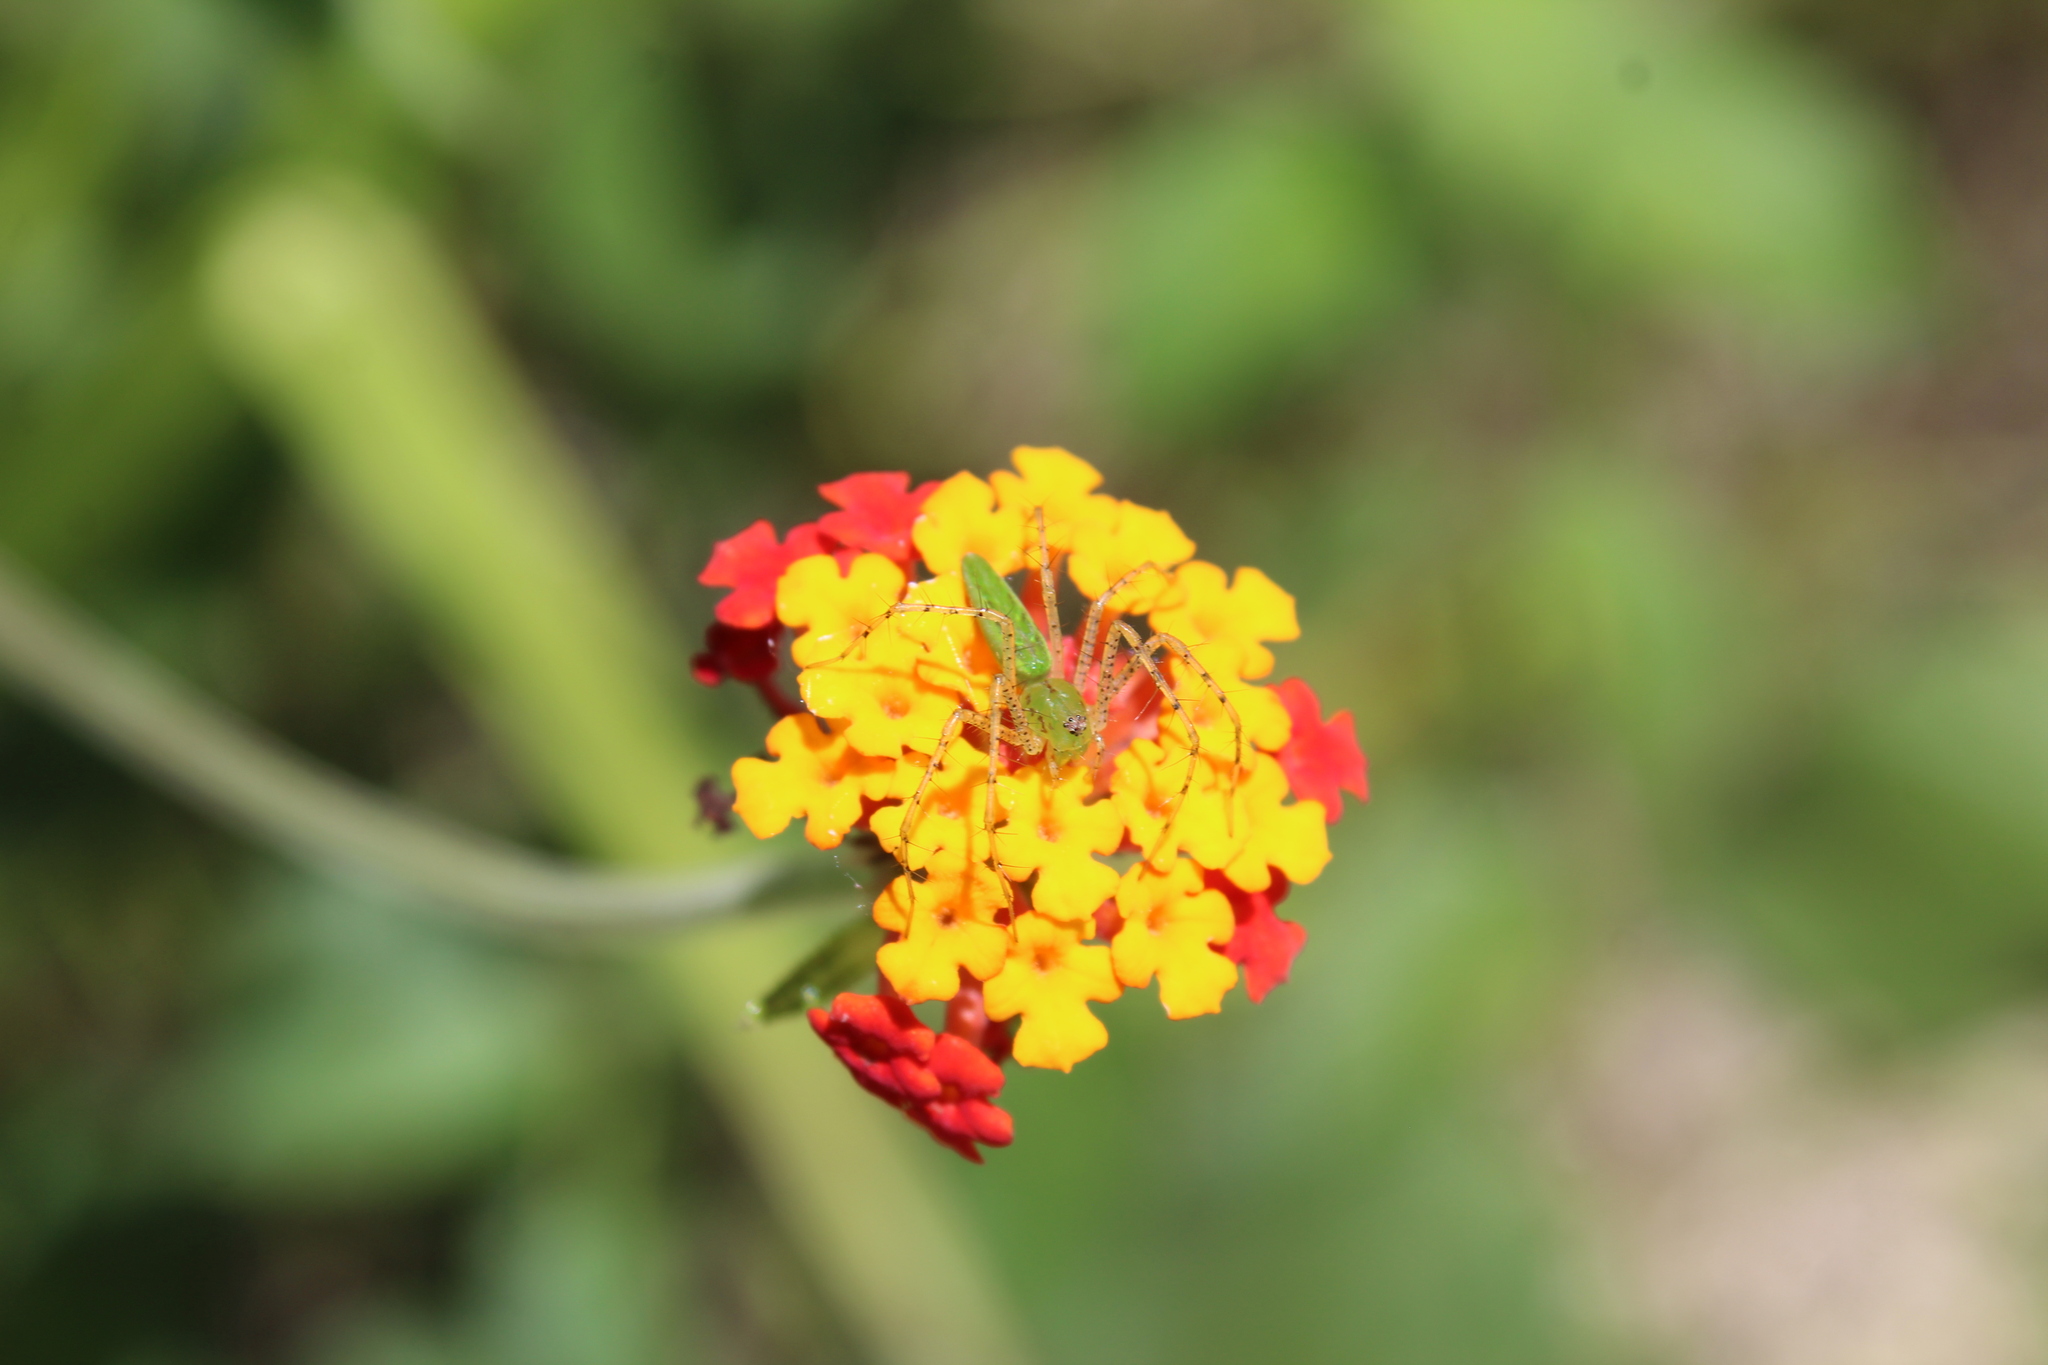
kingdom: Animalia
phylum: Arthropoda
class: Arachnida
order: Araneae
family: Oxyopidae
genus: Peucetia
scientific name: Peucetia viridans
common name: Lynx spiders
